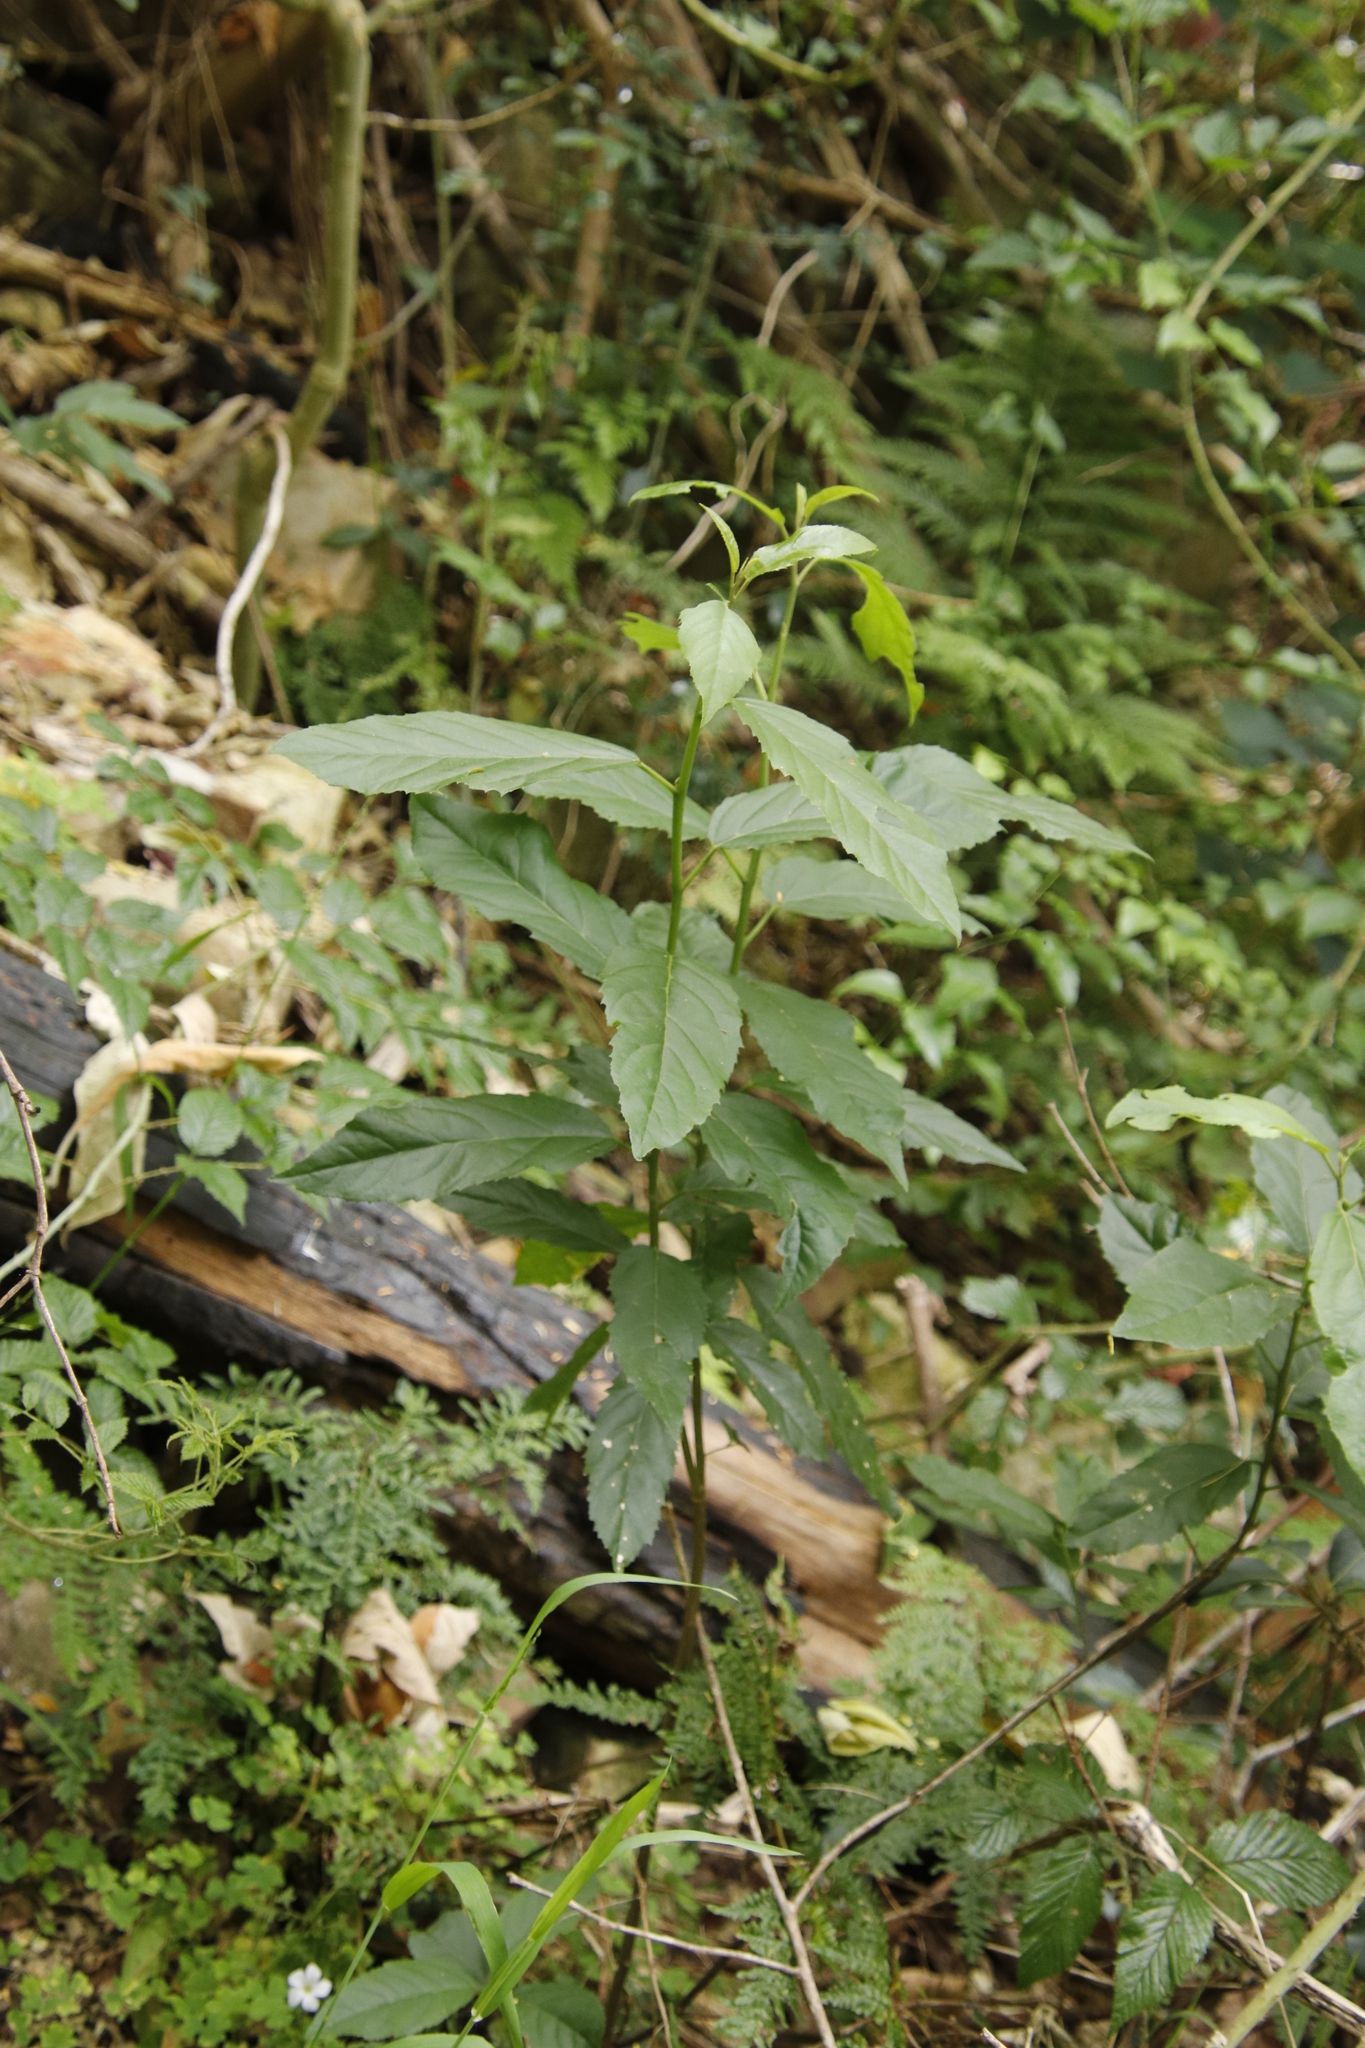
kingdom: Plantae
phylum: Tracheophyta
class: Magnoliopsida
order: Malpighiales
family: Achariaceae
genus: Kiggelaria
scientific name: Kiggelaria africana
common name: Wild peach
